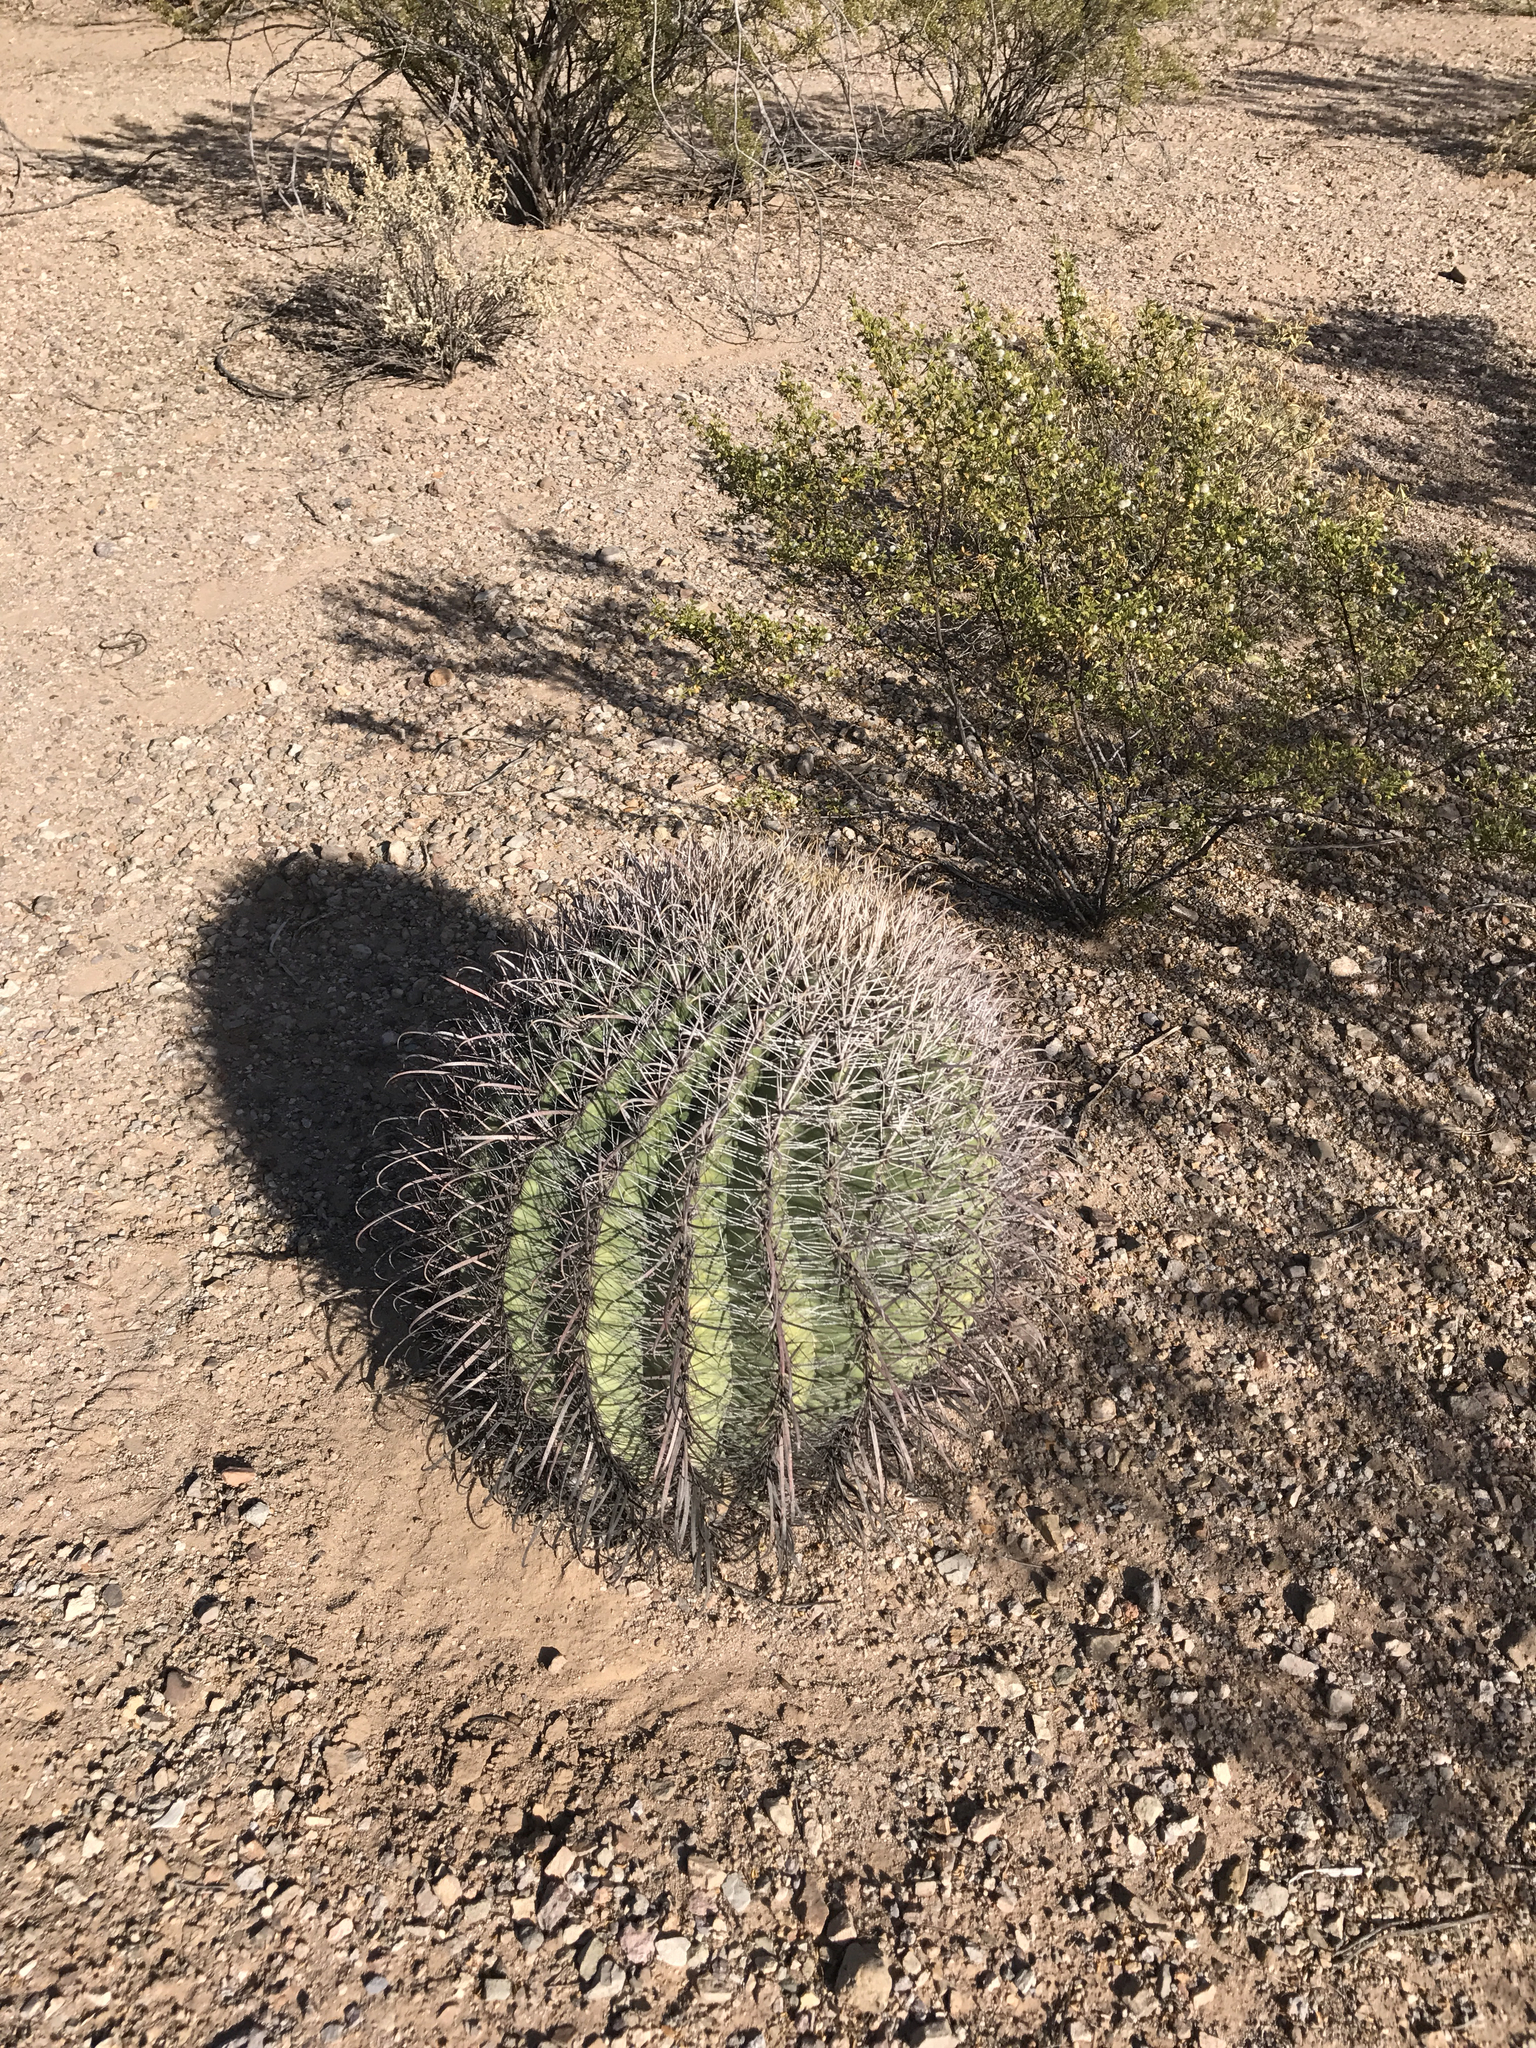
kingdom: Plantae
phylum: Tracheophyta
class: Magnoliopsida
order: Caryophyllales
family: Cactaceae
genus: Ferocactus
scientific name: Ferocactus wislizeni
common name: Candy barrel cactus
